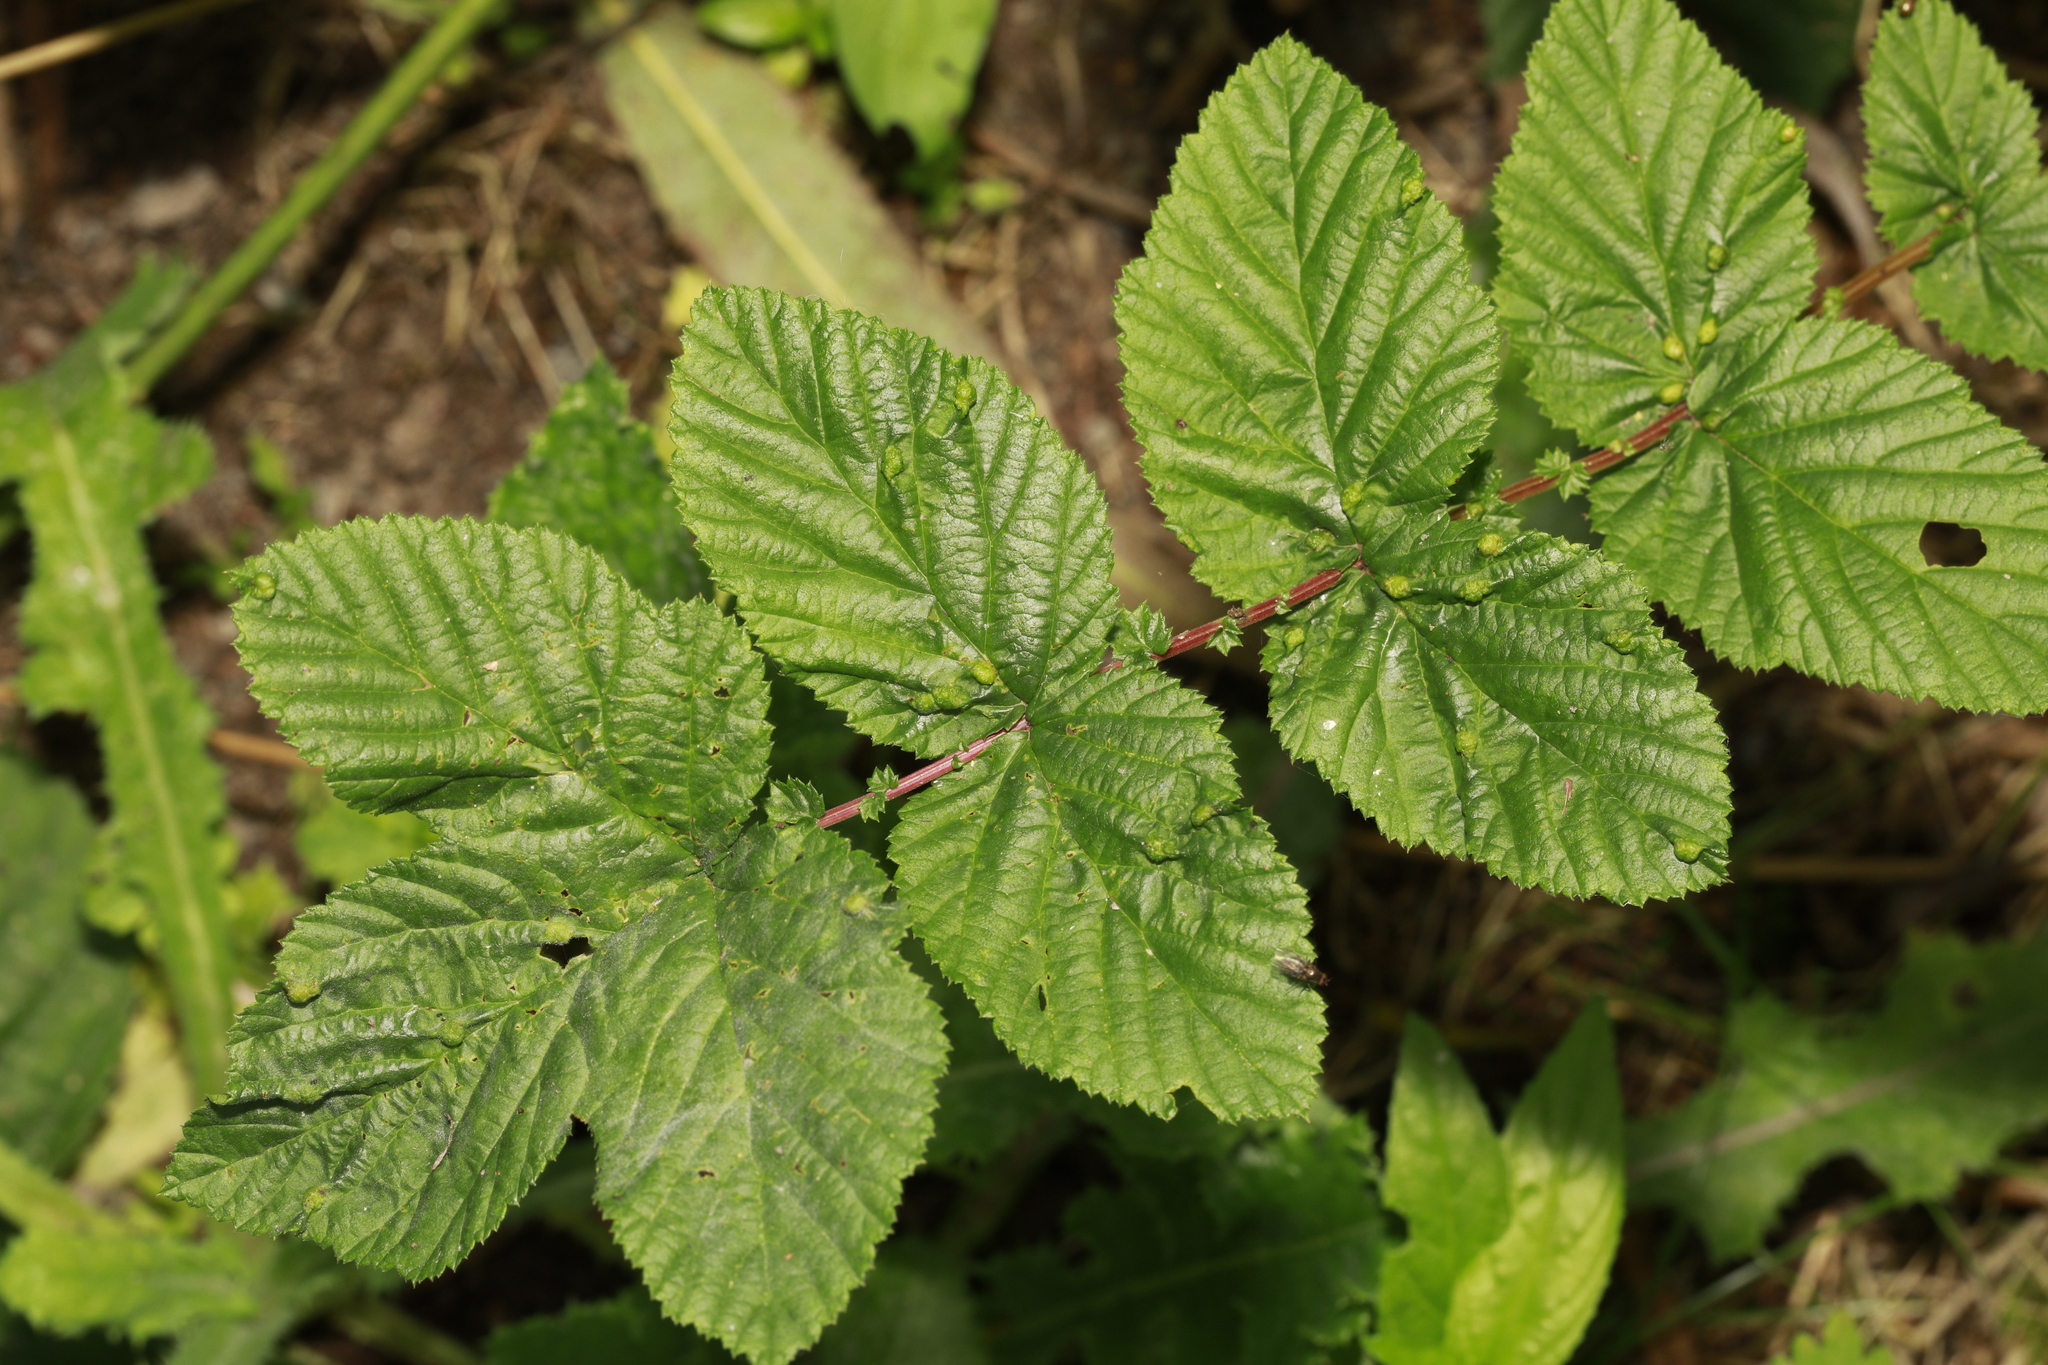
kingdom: Plantae
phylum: Tracheophyta
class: Magnoliopsida
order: Rosales
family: Rosaceae
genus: Filipendula
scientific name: Filipendula ulmaria
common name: Meadowsweet
